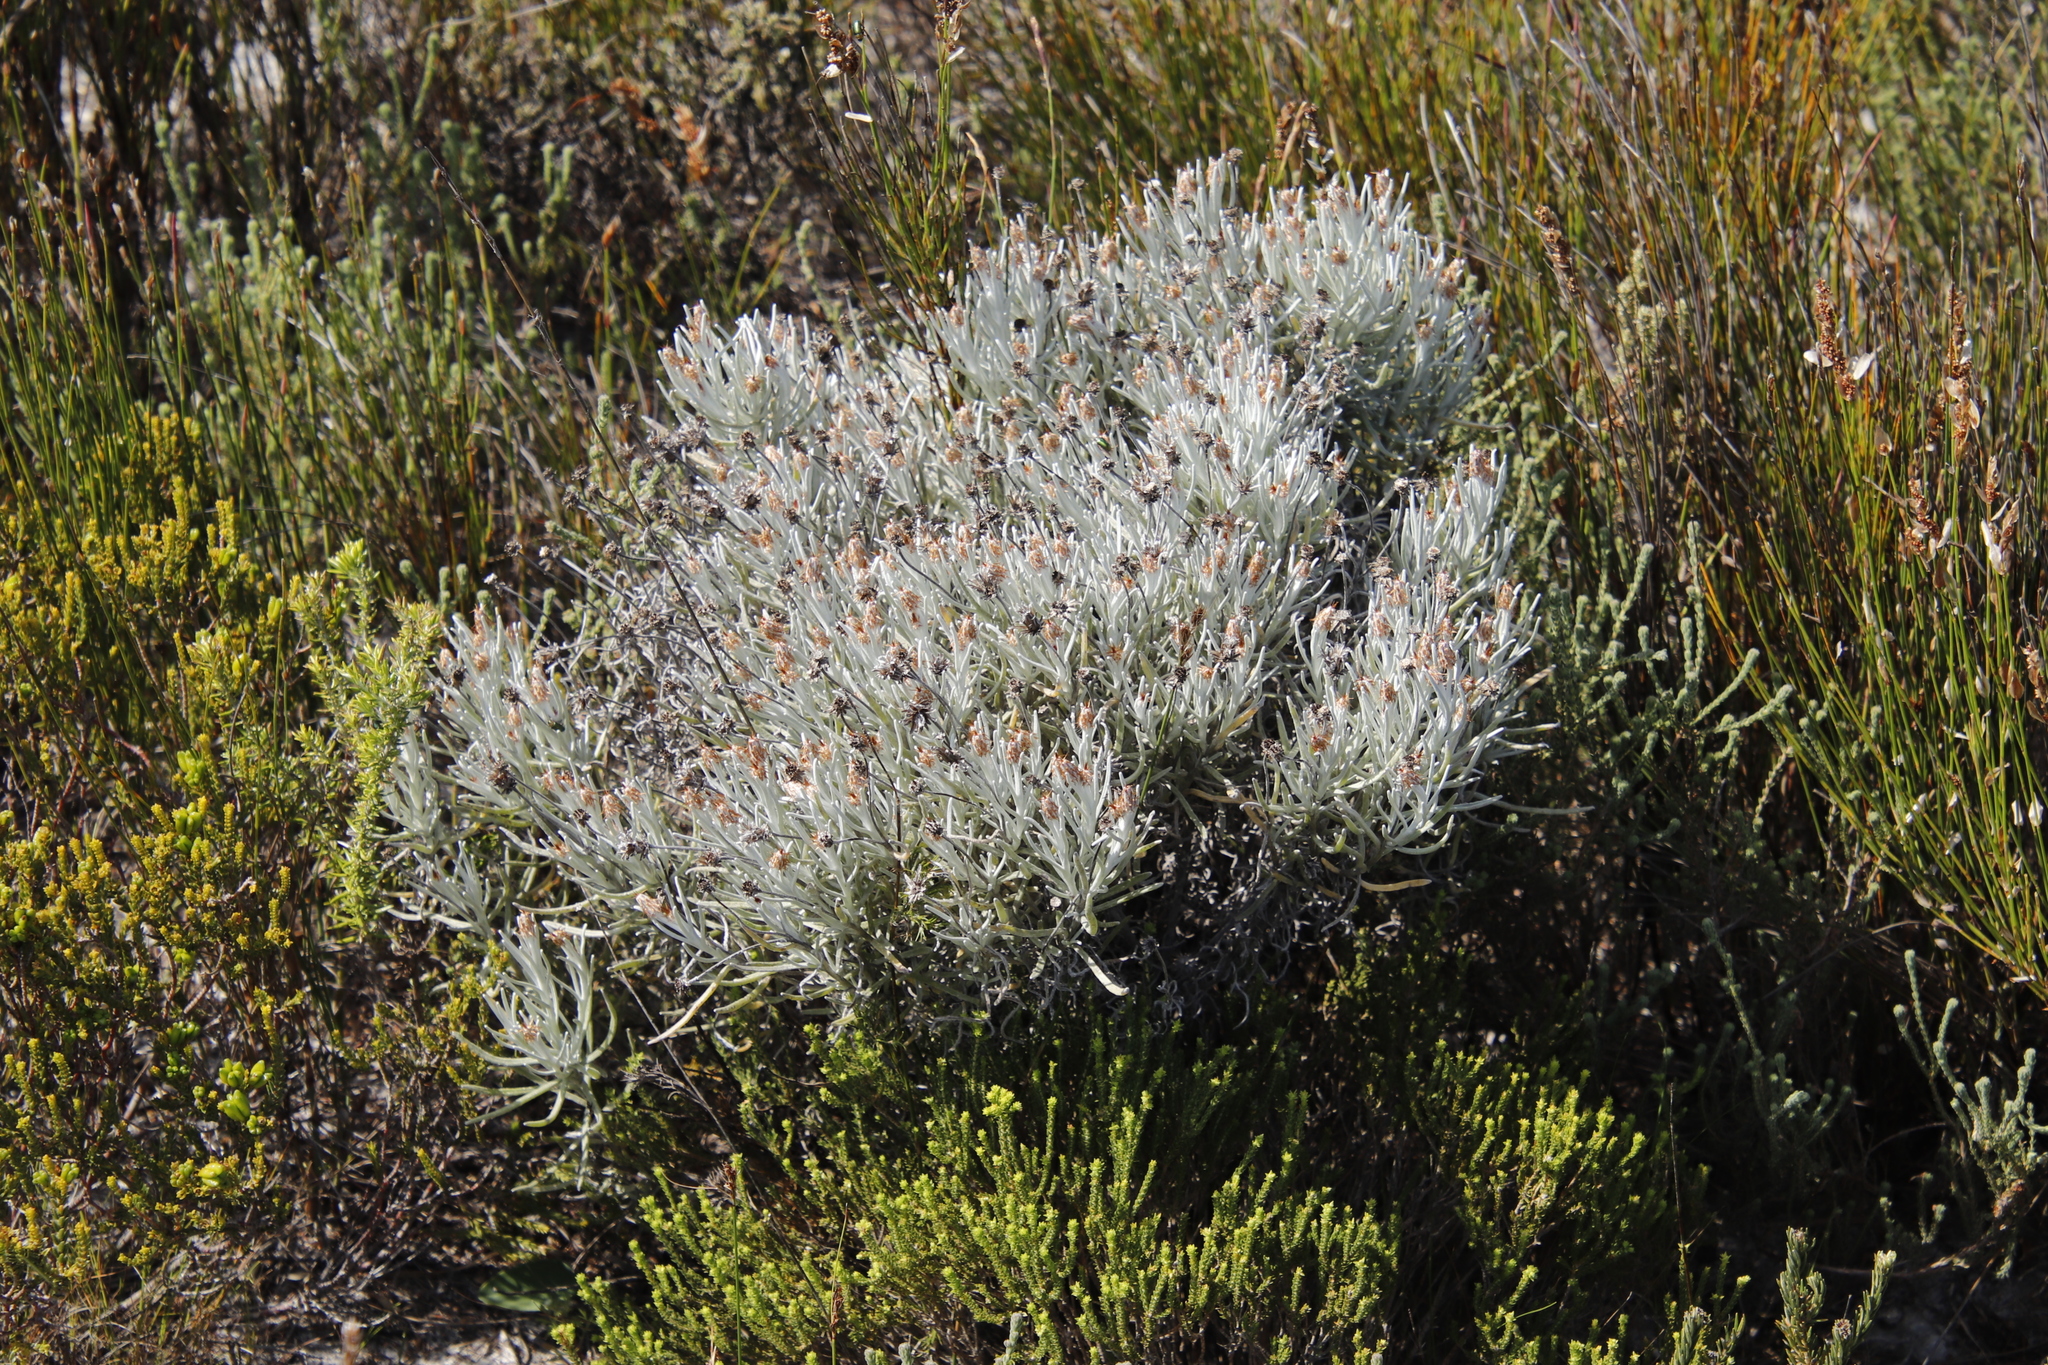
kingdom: Plantae
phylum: Tracheophyta
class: Magnoliopsida
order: Asterales
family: Asteraceae
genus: Syncarpha
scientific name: Syncarpha gnaphaloides
